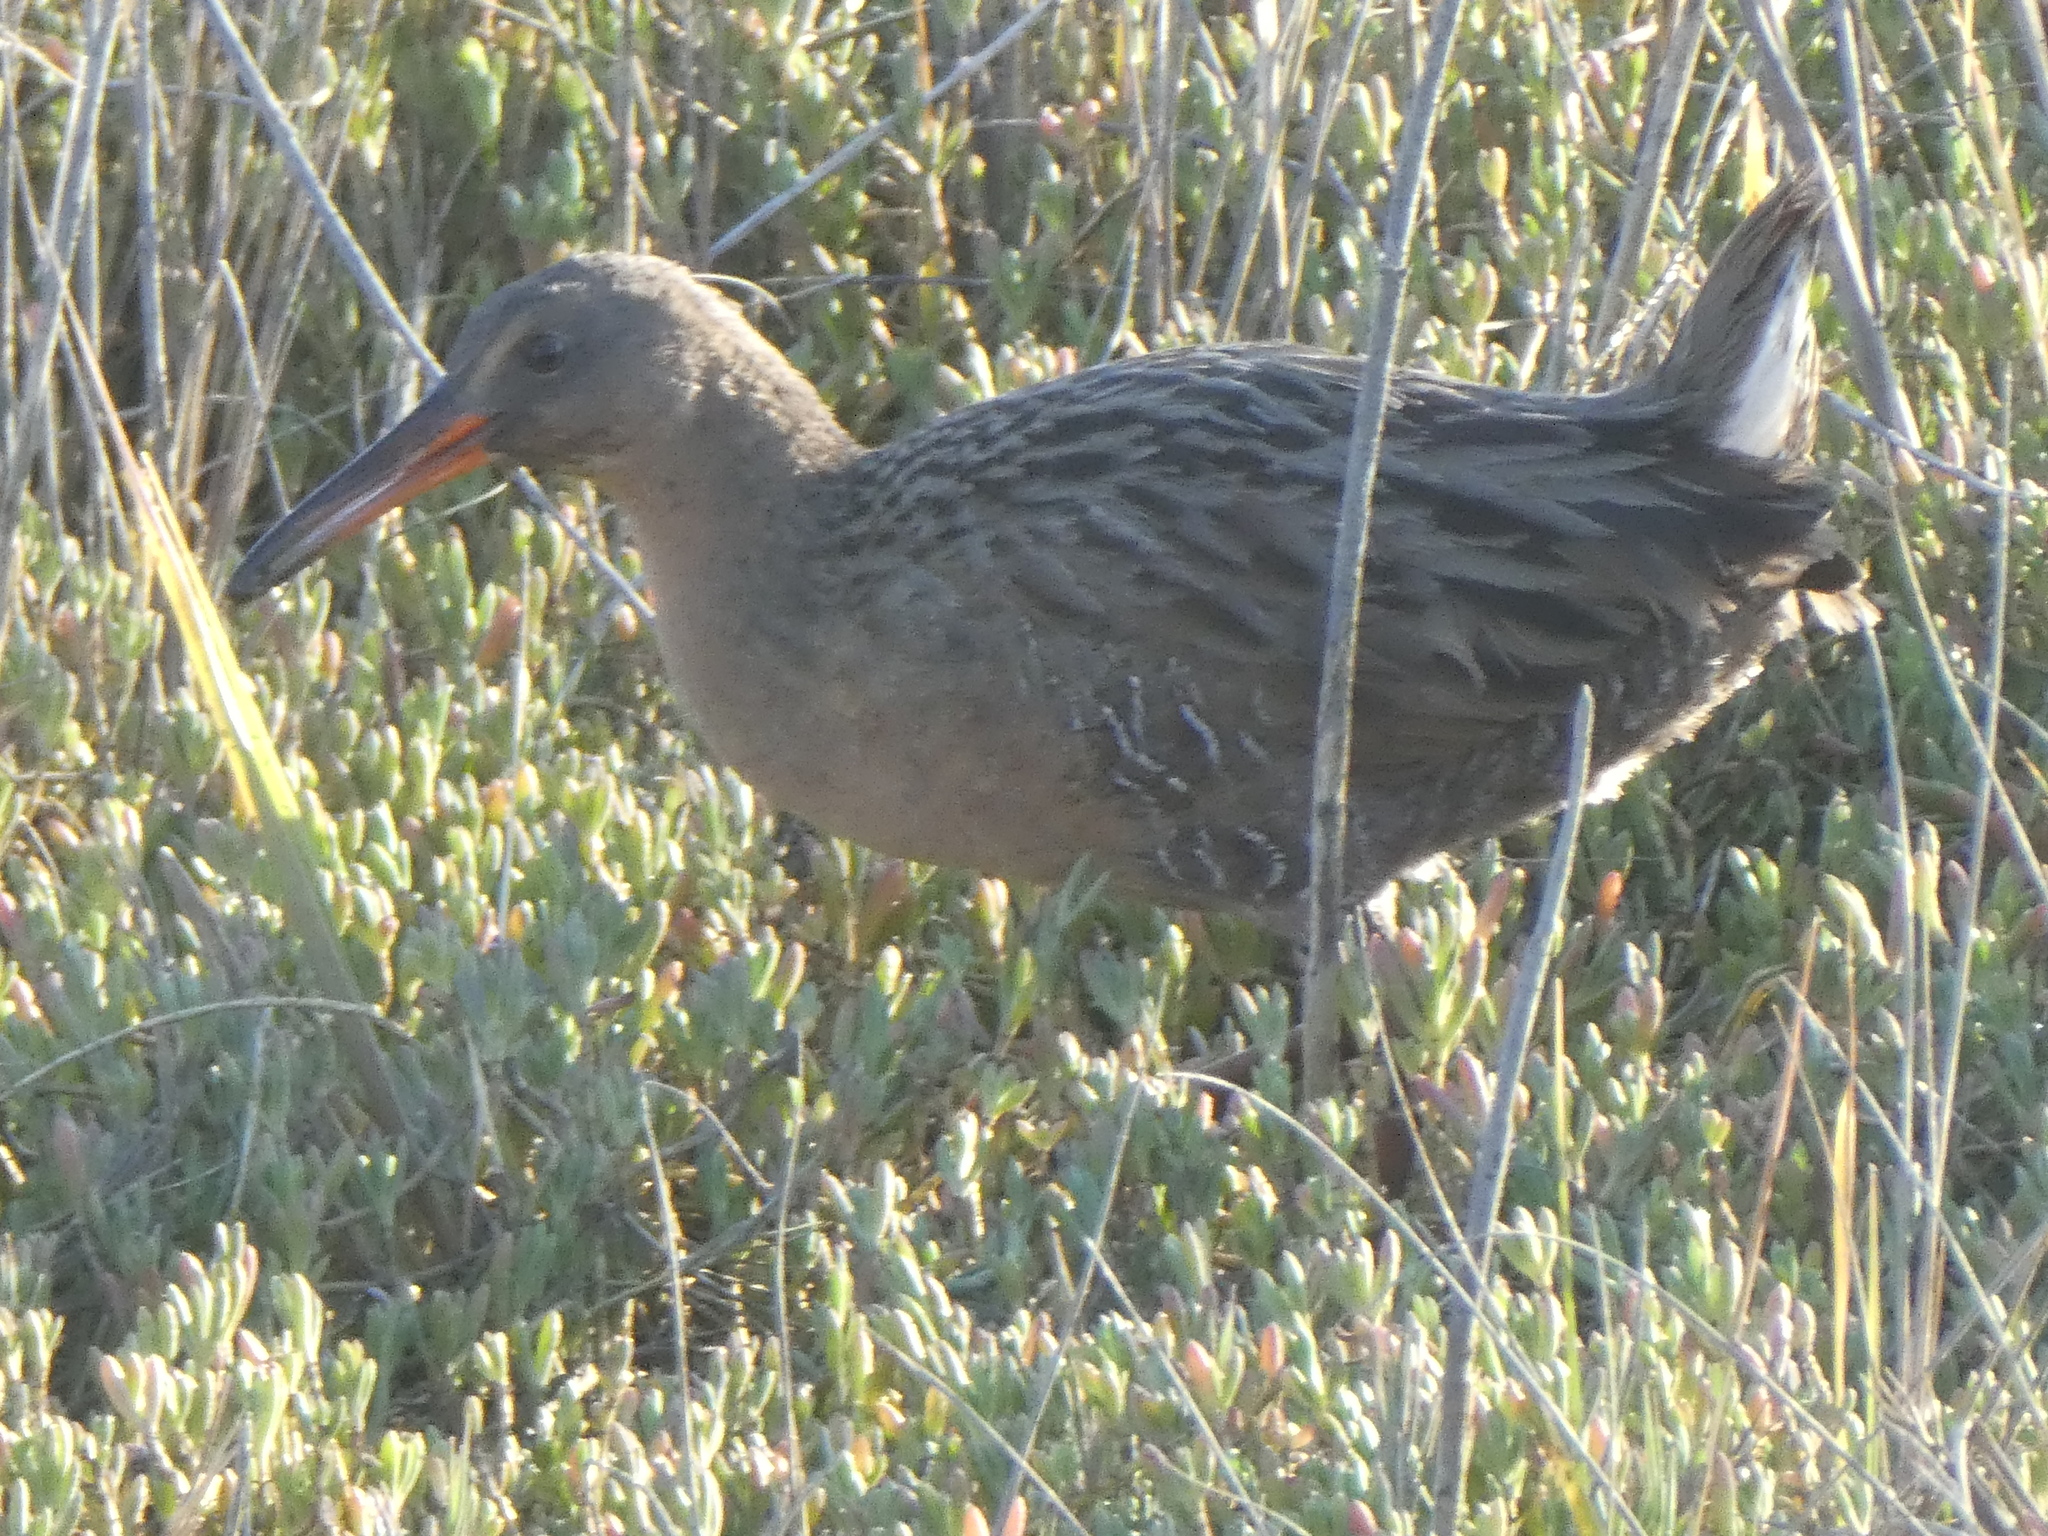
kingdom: Animalia
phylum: Chordata
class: Aves
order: Gruiformes
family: Rallidae
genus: Rallus
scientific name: Rallus obsoletus
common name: Ridgway's rail
